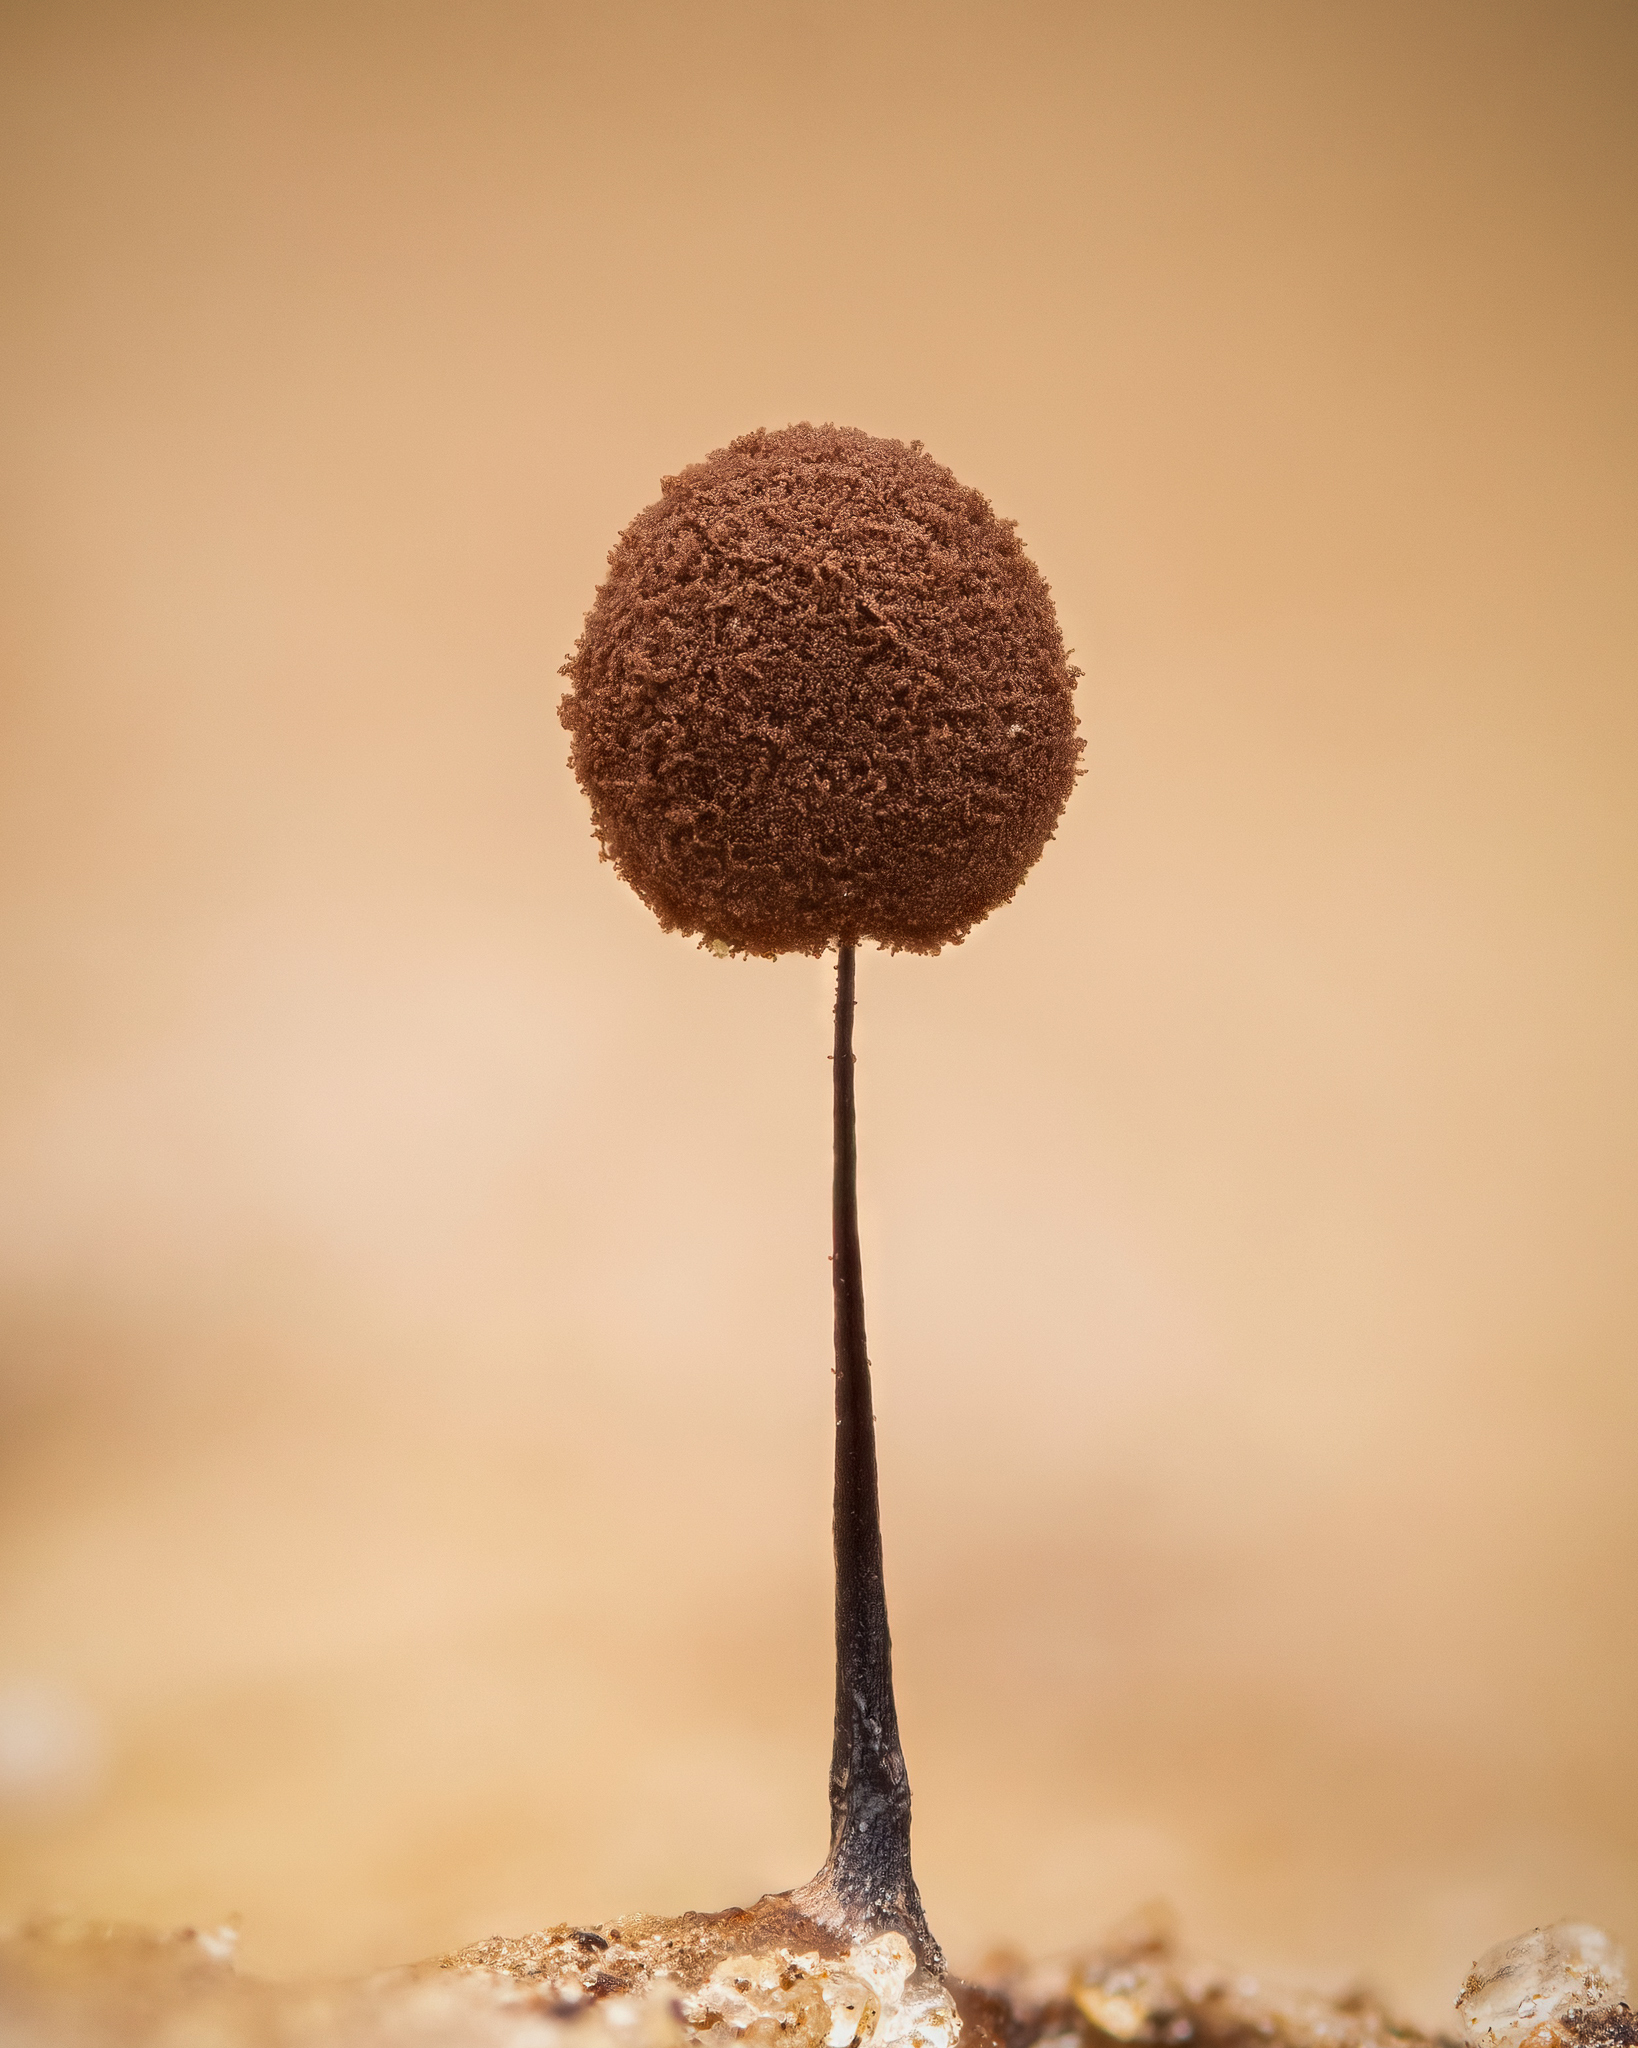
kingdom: Protozoa
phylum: Mycetozoa
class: Myxomycetes
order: Stemonitidales
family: Stemonitidaceae
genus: Comatricha
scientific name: Comatricha nigra
